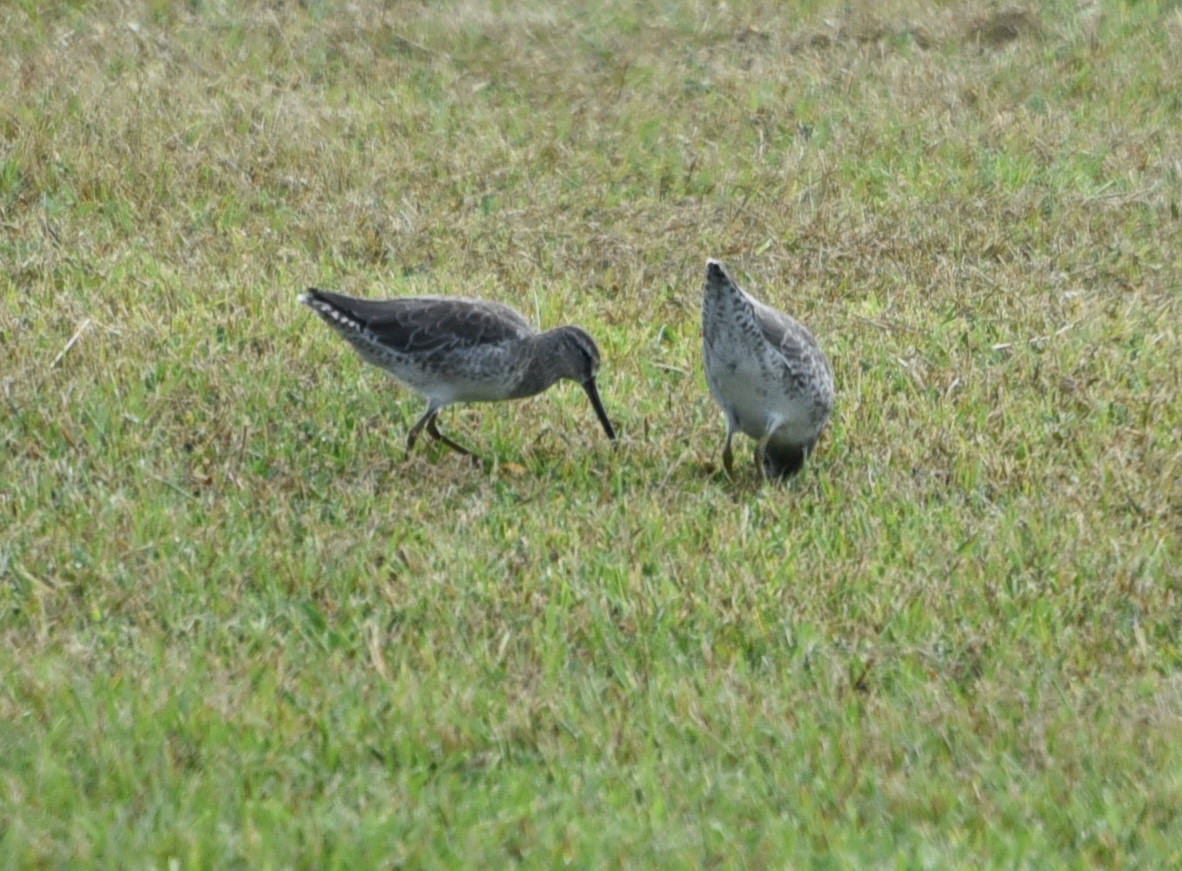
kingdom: Animalia
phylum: Chordata
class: Aves
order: Charadriiformes
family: Scolopacidae
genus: Limnodromus
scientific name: Limnodromus griseus
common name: Short-billed dowitcher
